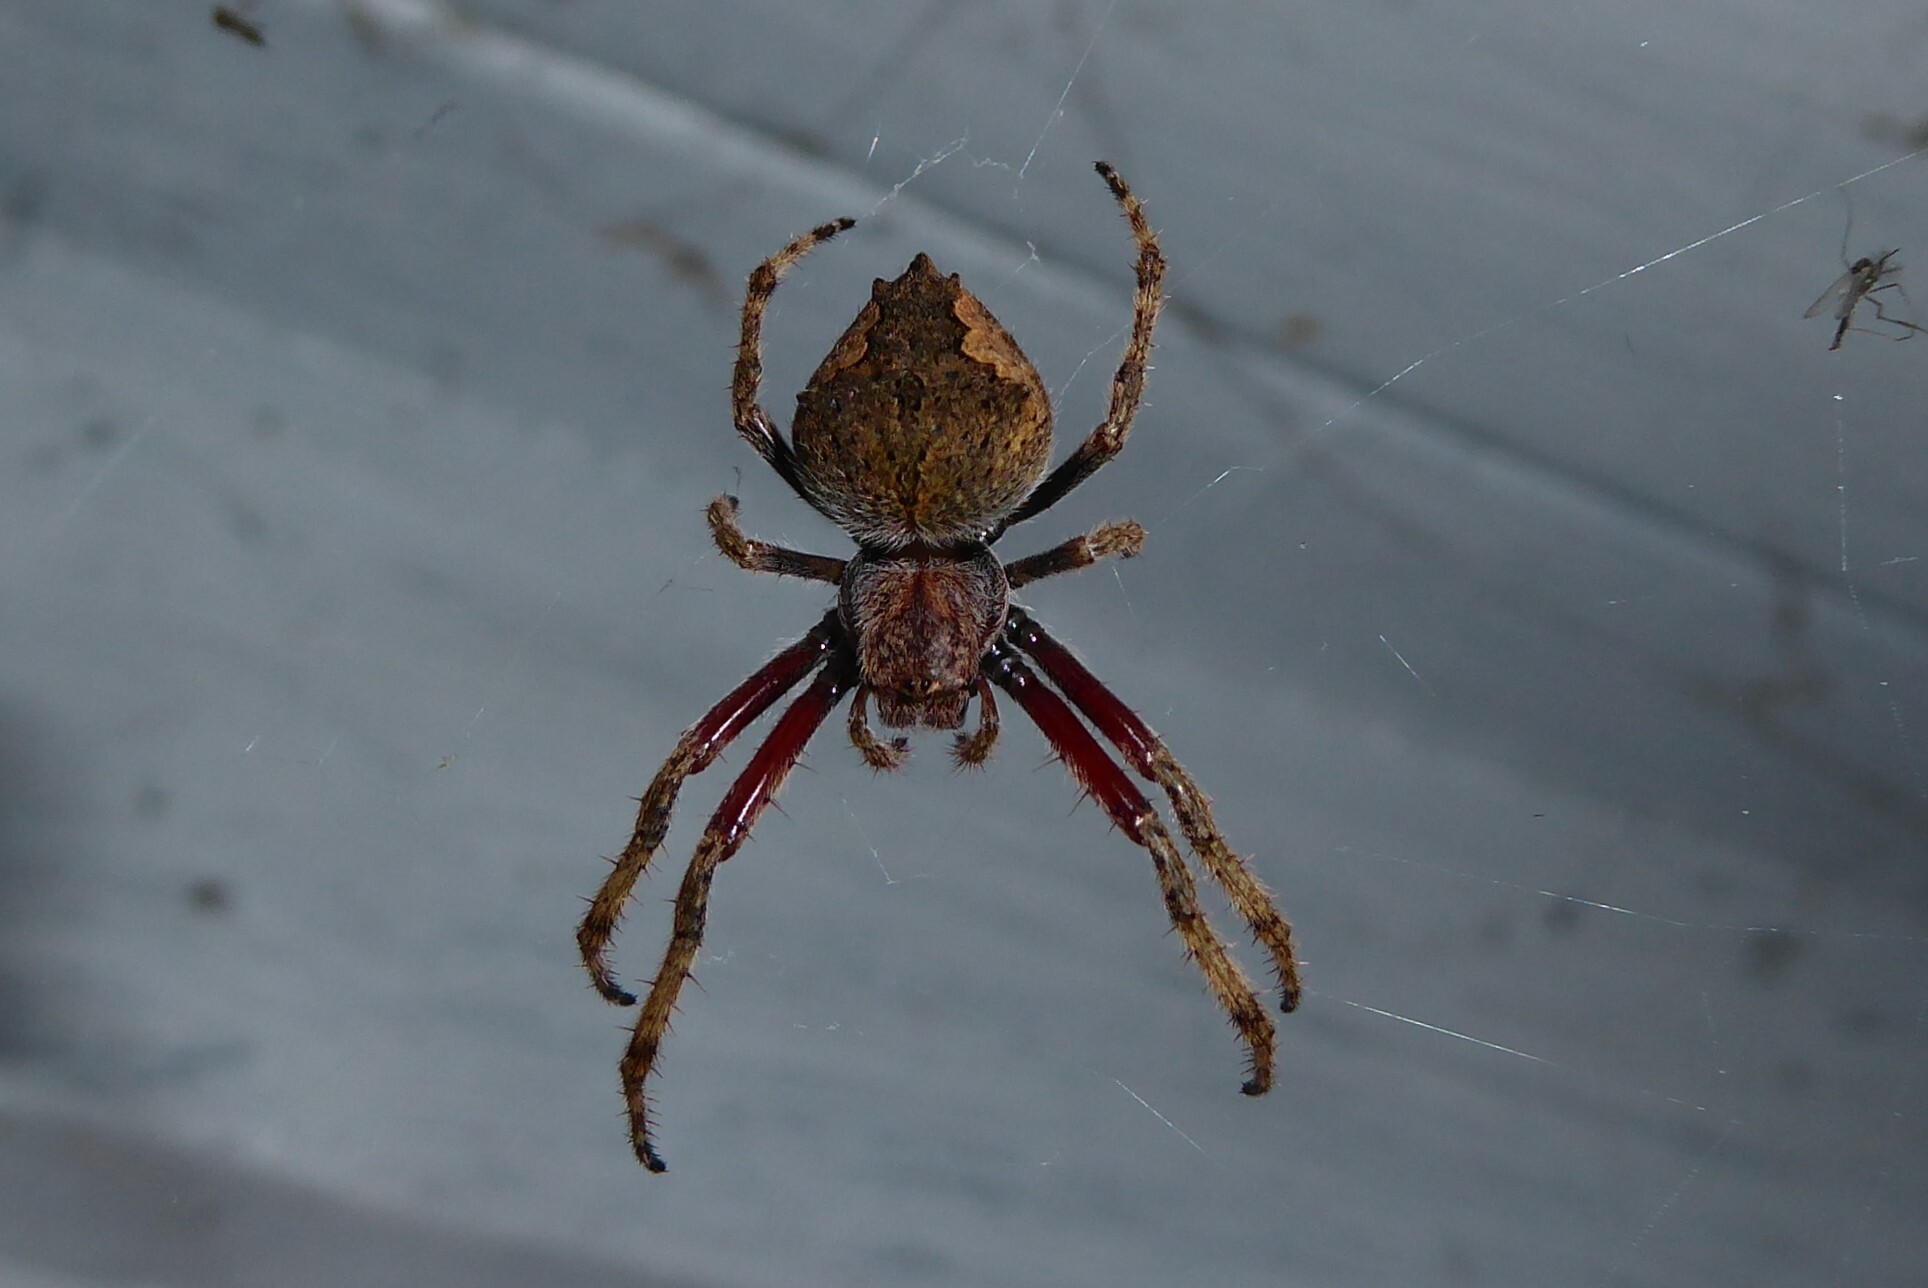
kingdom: Animalia
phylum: Arthropoda
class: Arachnida
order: Araneae
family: Araneidae
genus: Eriophora
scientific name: Eriophora pustulosa
